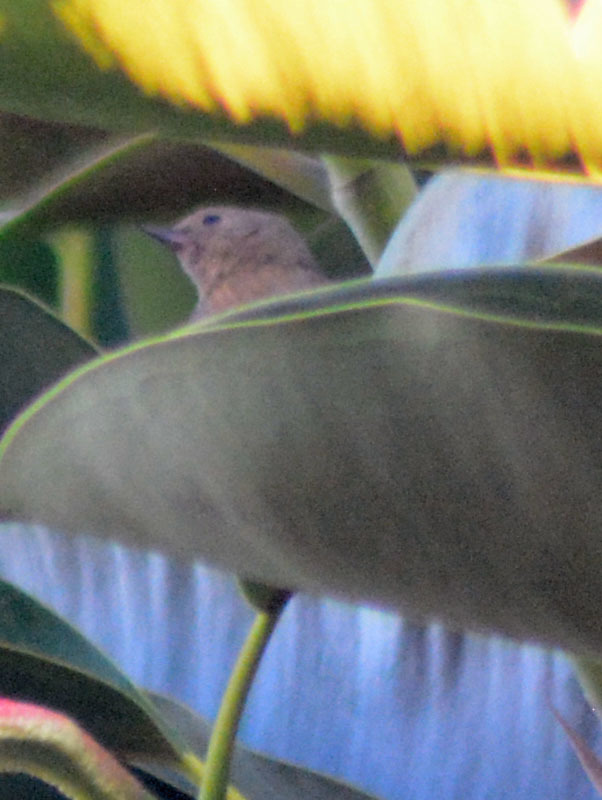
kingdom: Animalia
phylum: Chordata
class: Aves
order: Passeriformes
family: Thraupidae
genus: Diglossa
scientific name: Diglossa baritula
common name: Cinnamon-bellied flowerpiercer
